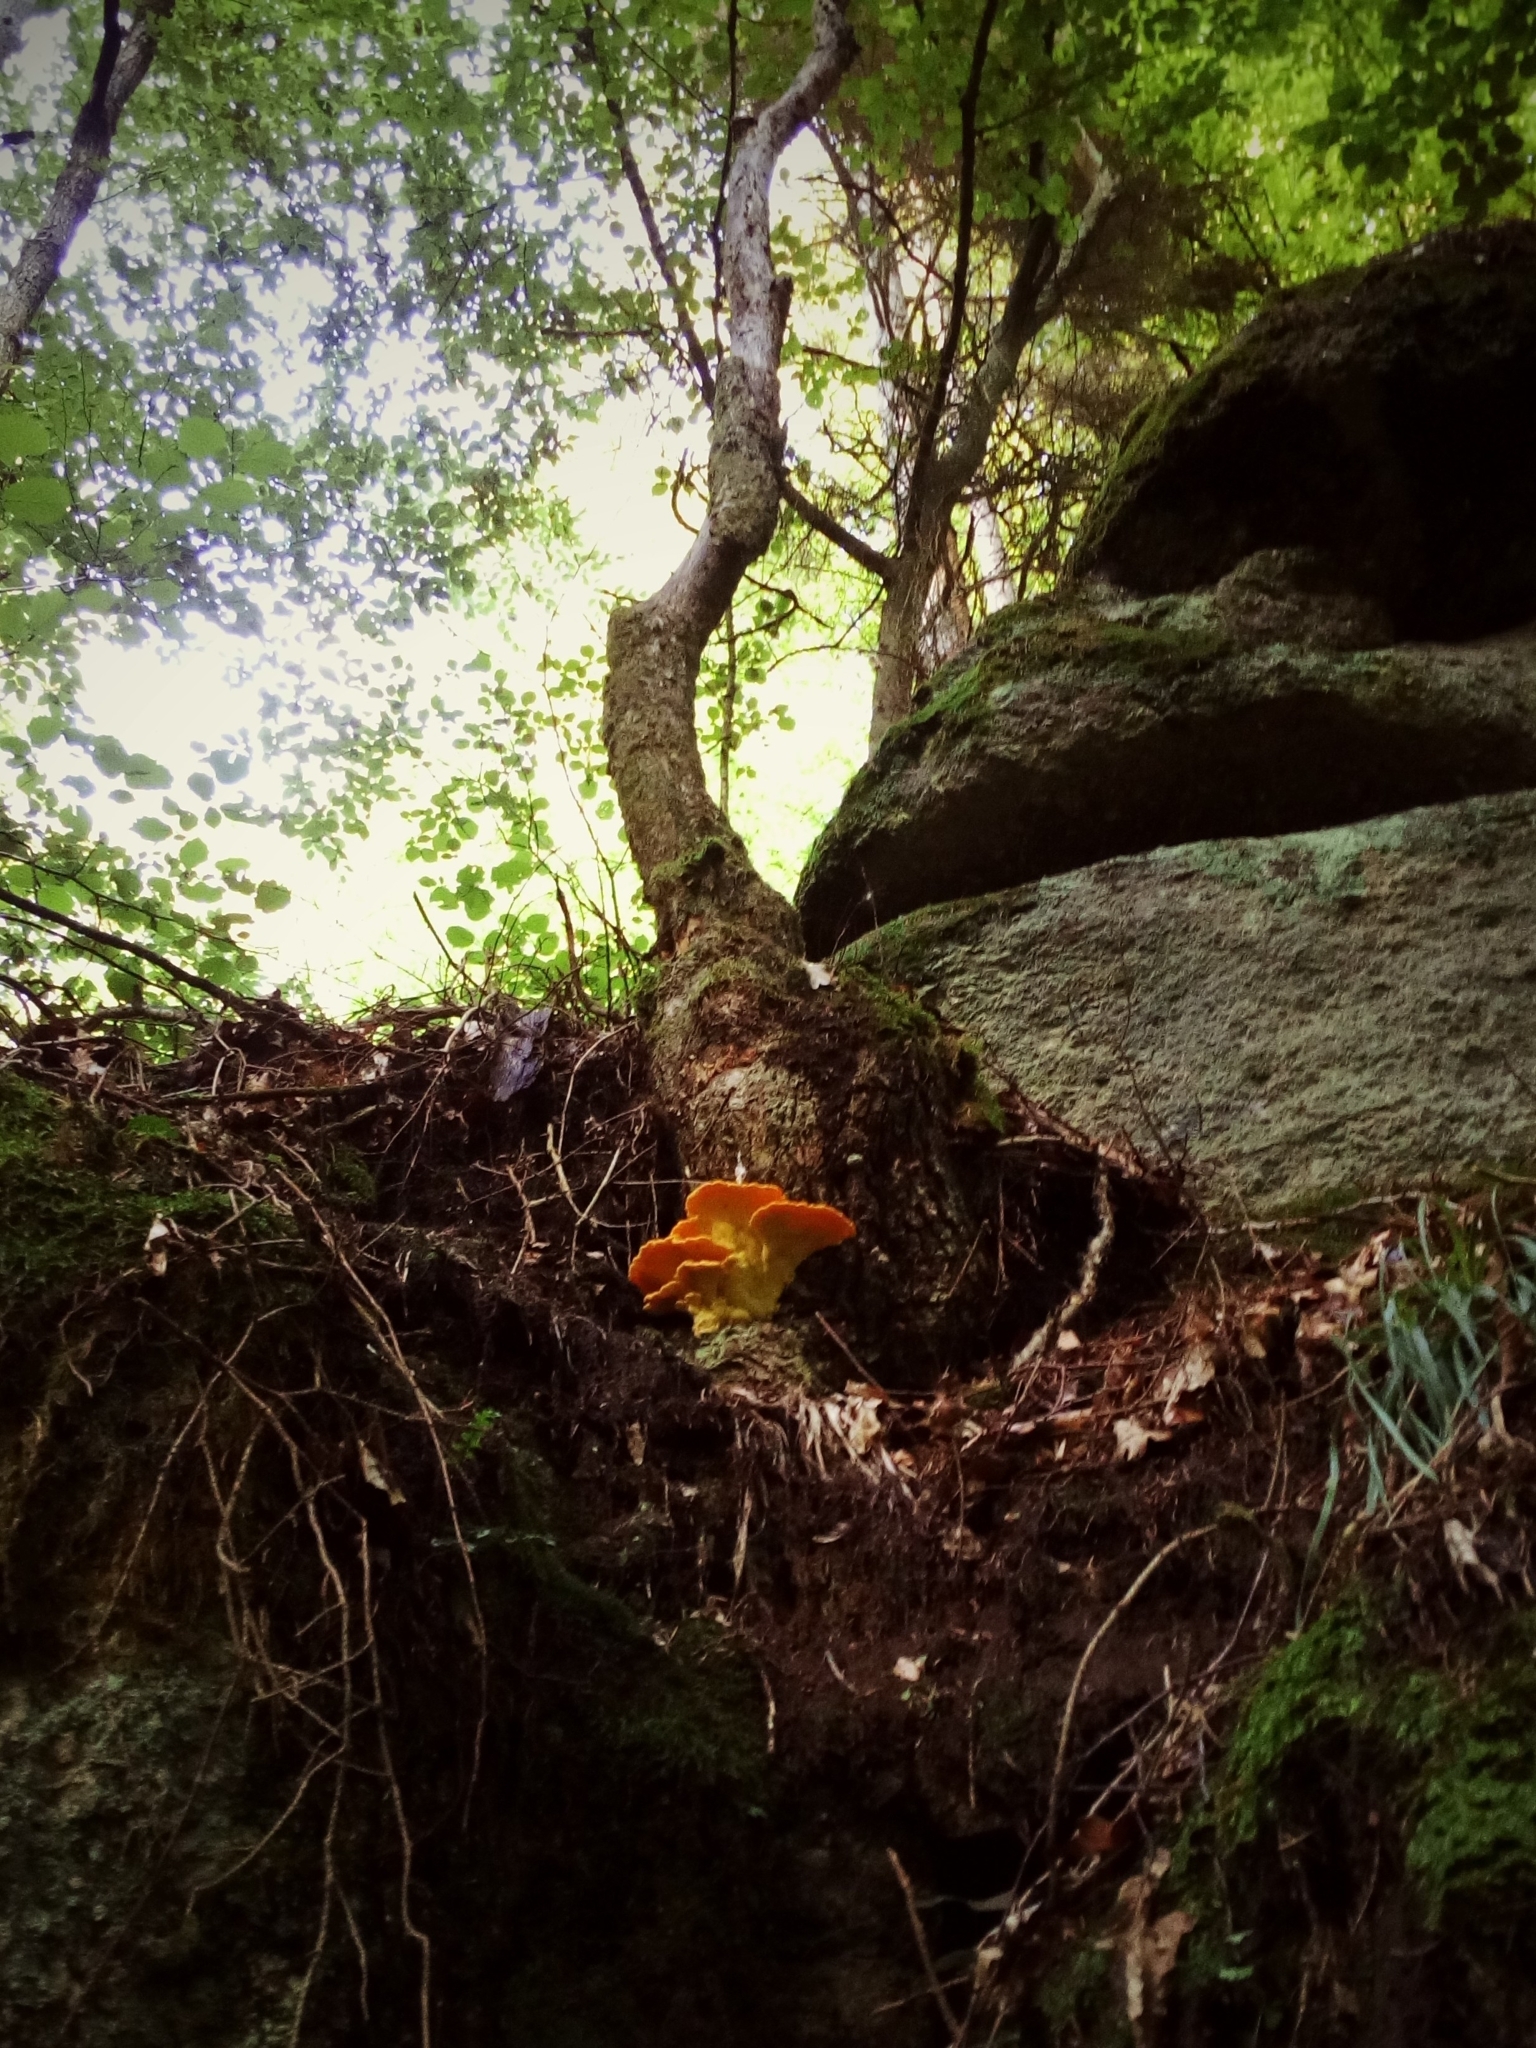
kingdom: Fungi
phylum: Basidiomycota
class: Agaricomycetes
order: Polyporales
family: Laetiporaceae
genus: Laetiporus
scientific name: Laetiporus sulphureus
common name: Chicken of the woods
